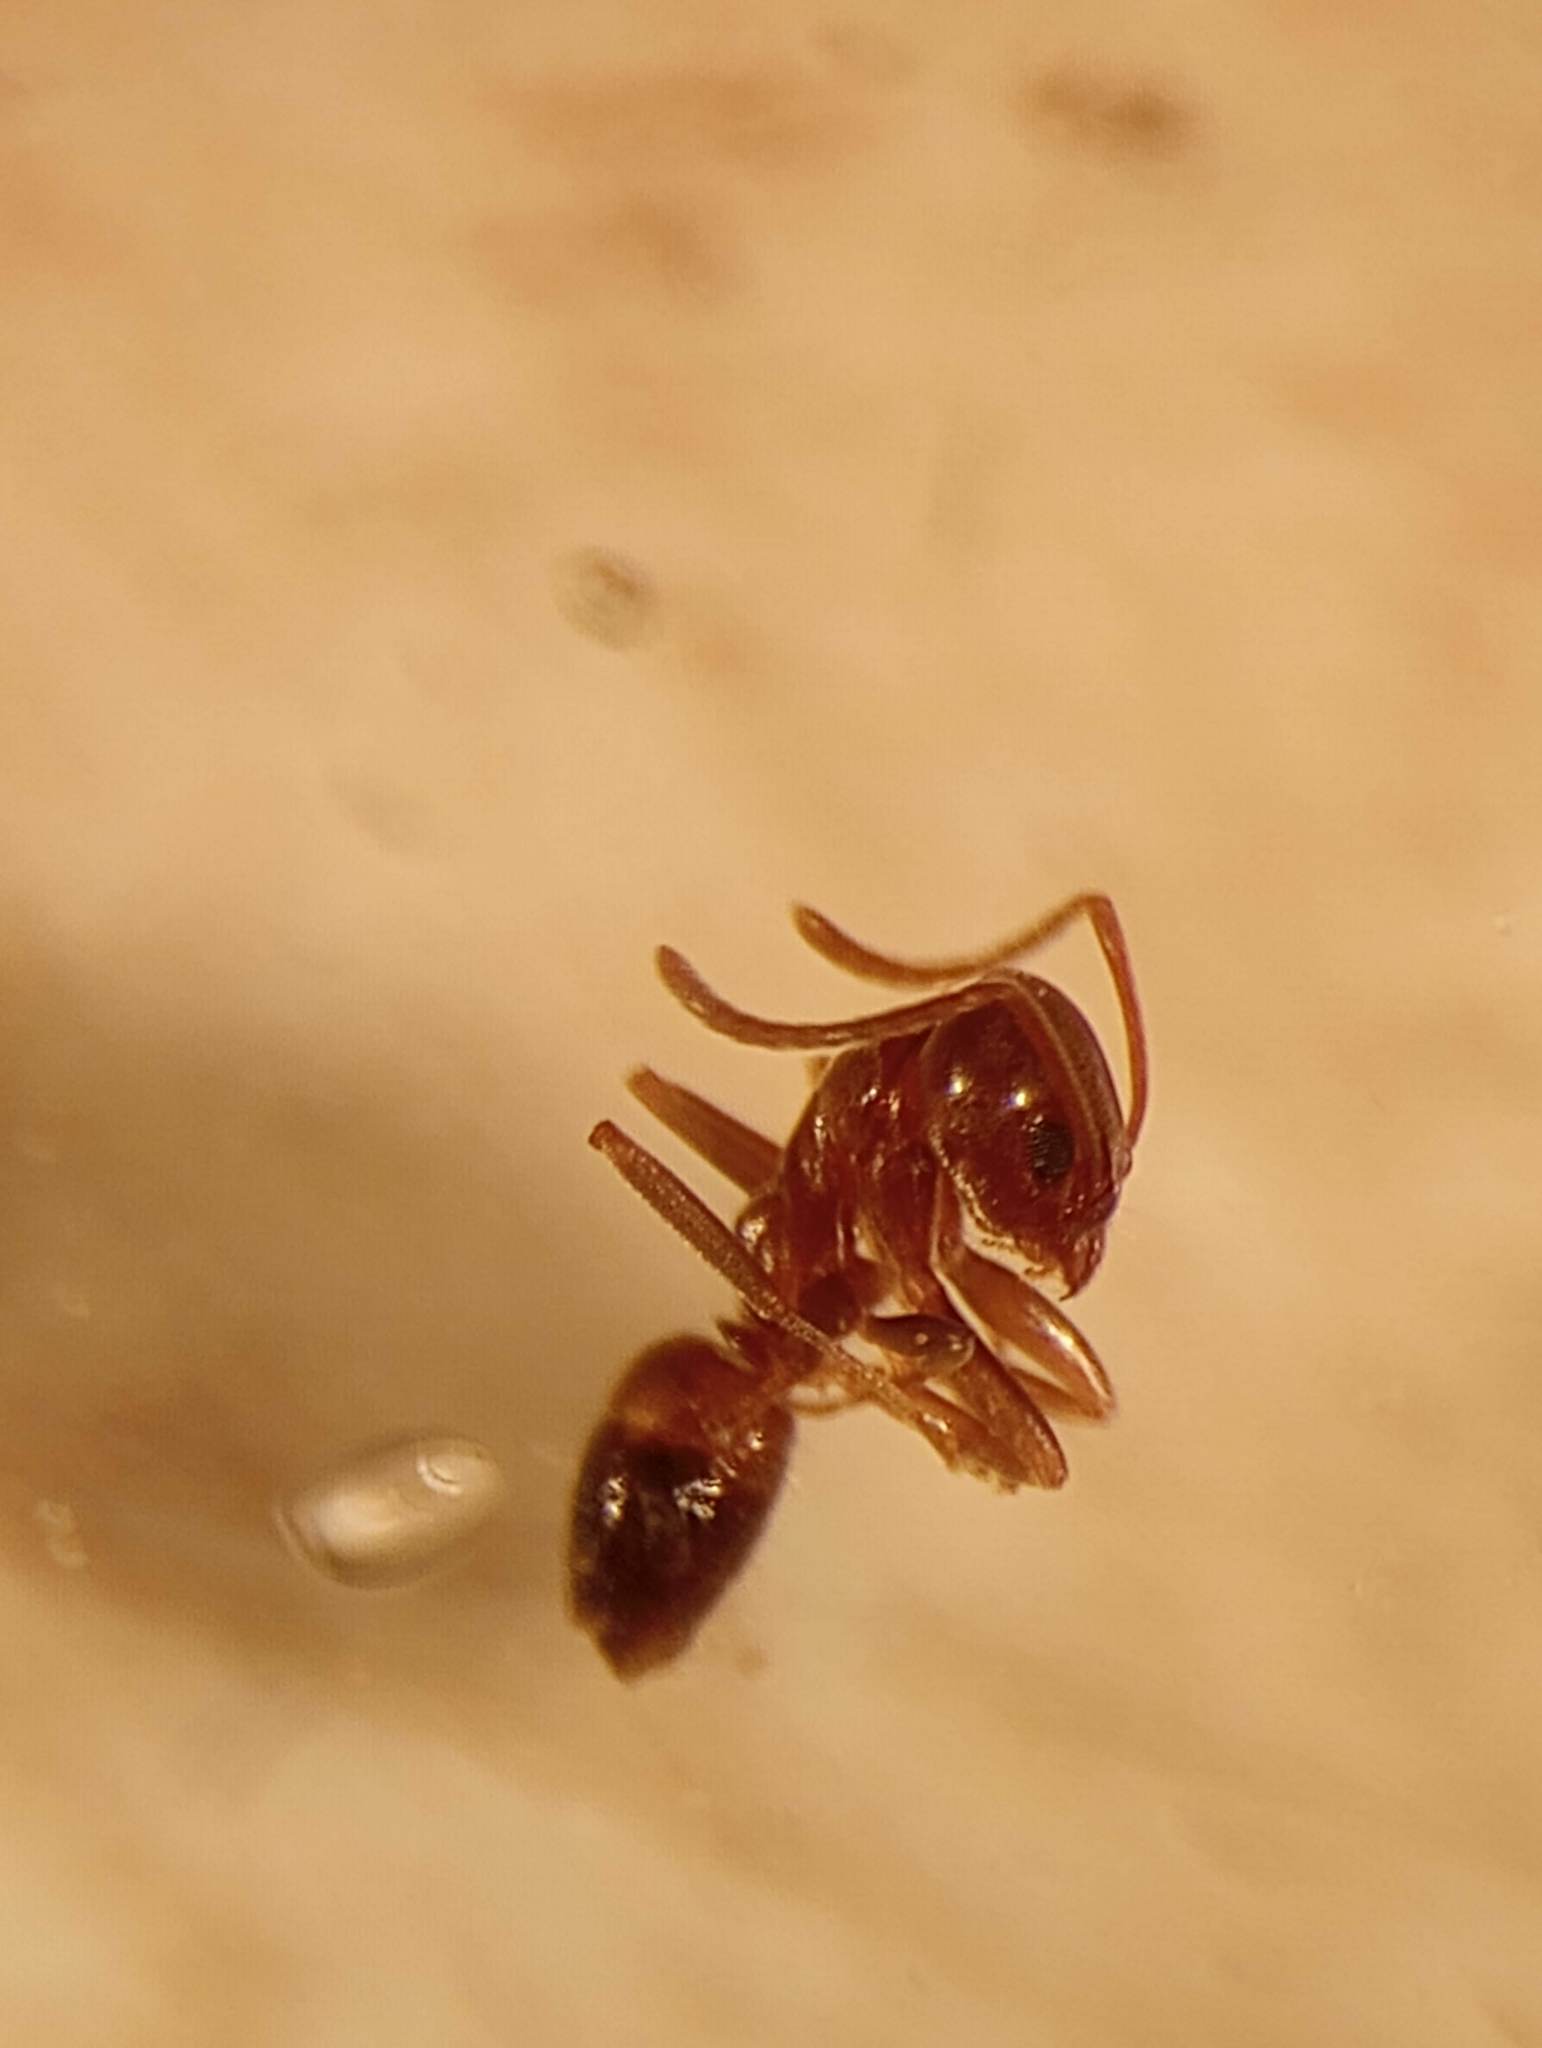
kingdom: Animalia
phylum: Arthropoda
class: Insecta
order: Hymenoptera
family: Formicidae
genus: Linepithema
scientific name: Linepithema humile
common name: Argentine ant
